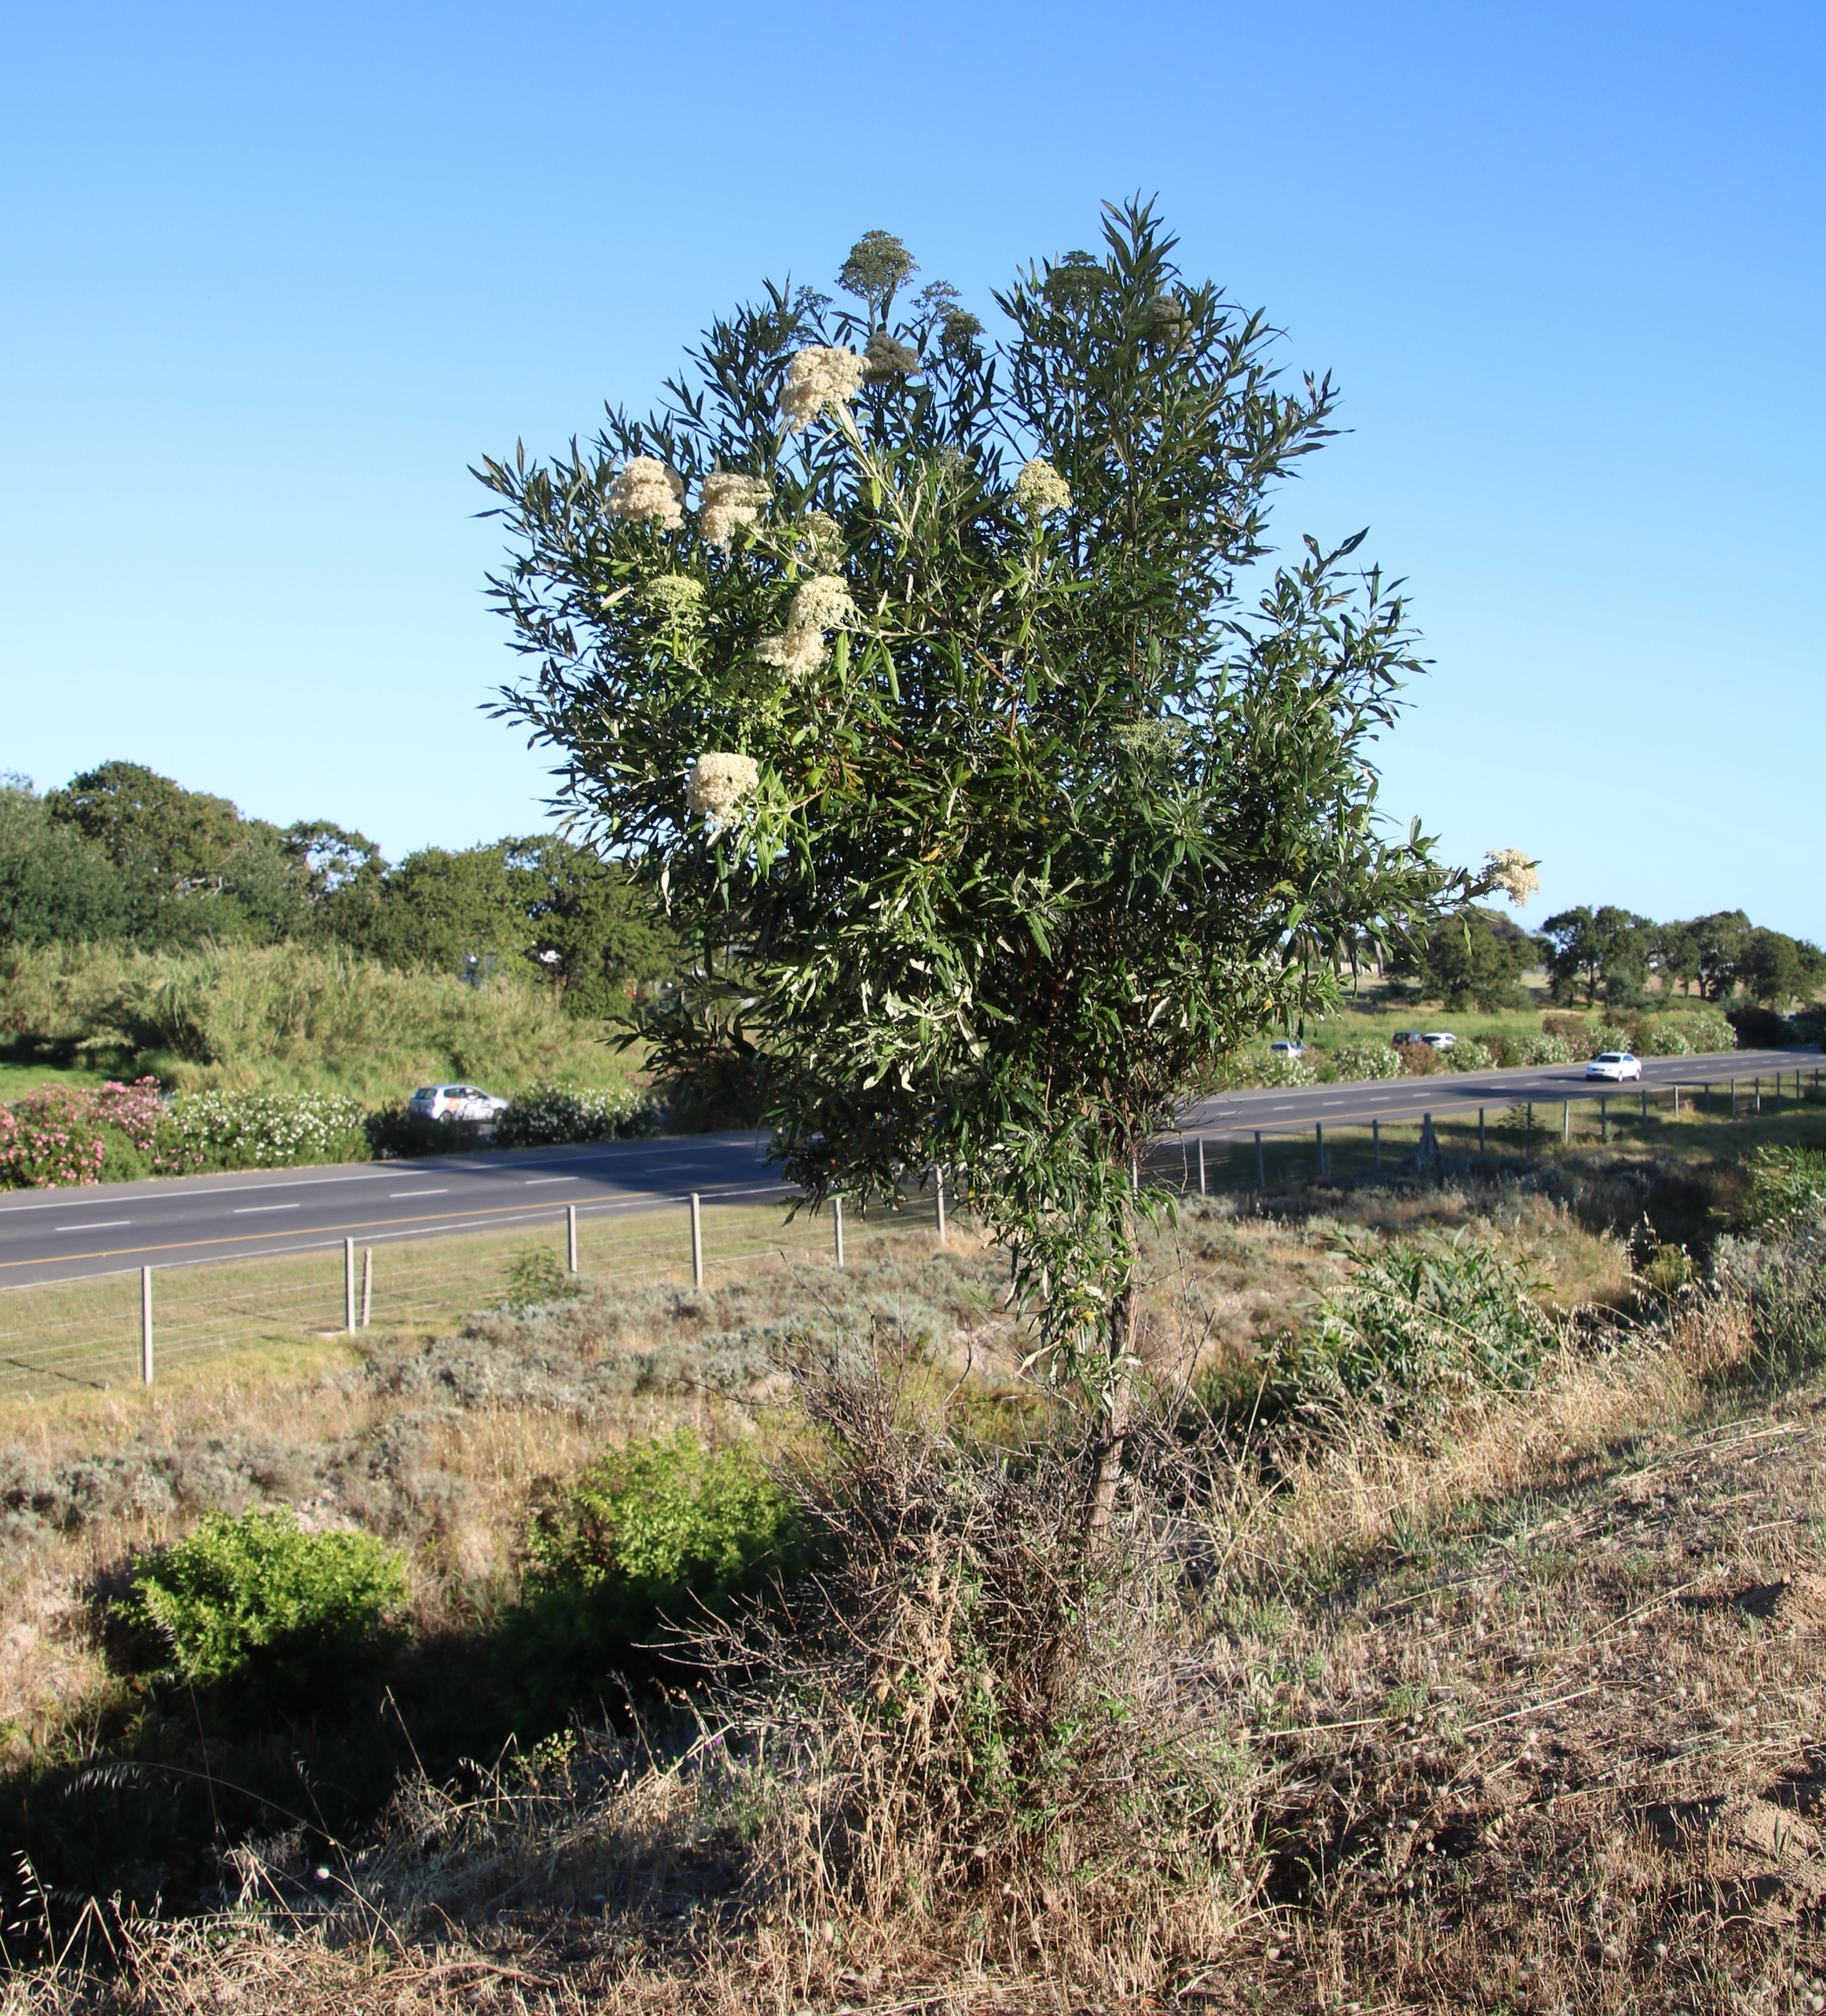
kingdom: Plantae
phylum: Tracheophyta
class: Magnoliopsida
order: Lamiales
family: Scrophulariaceae
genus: Buddleja
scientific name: Buddleja saligna
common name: False olive
